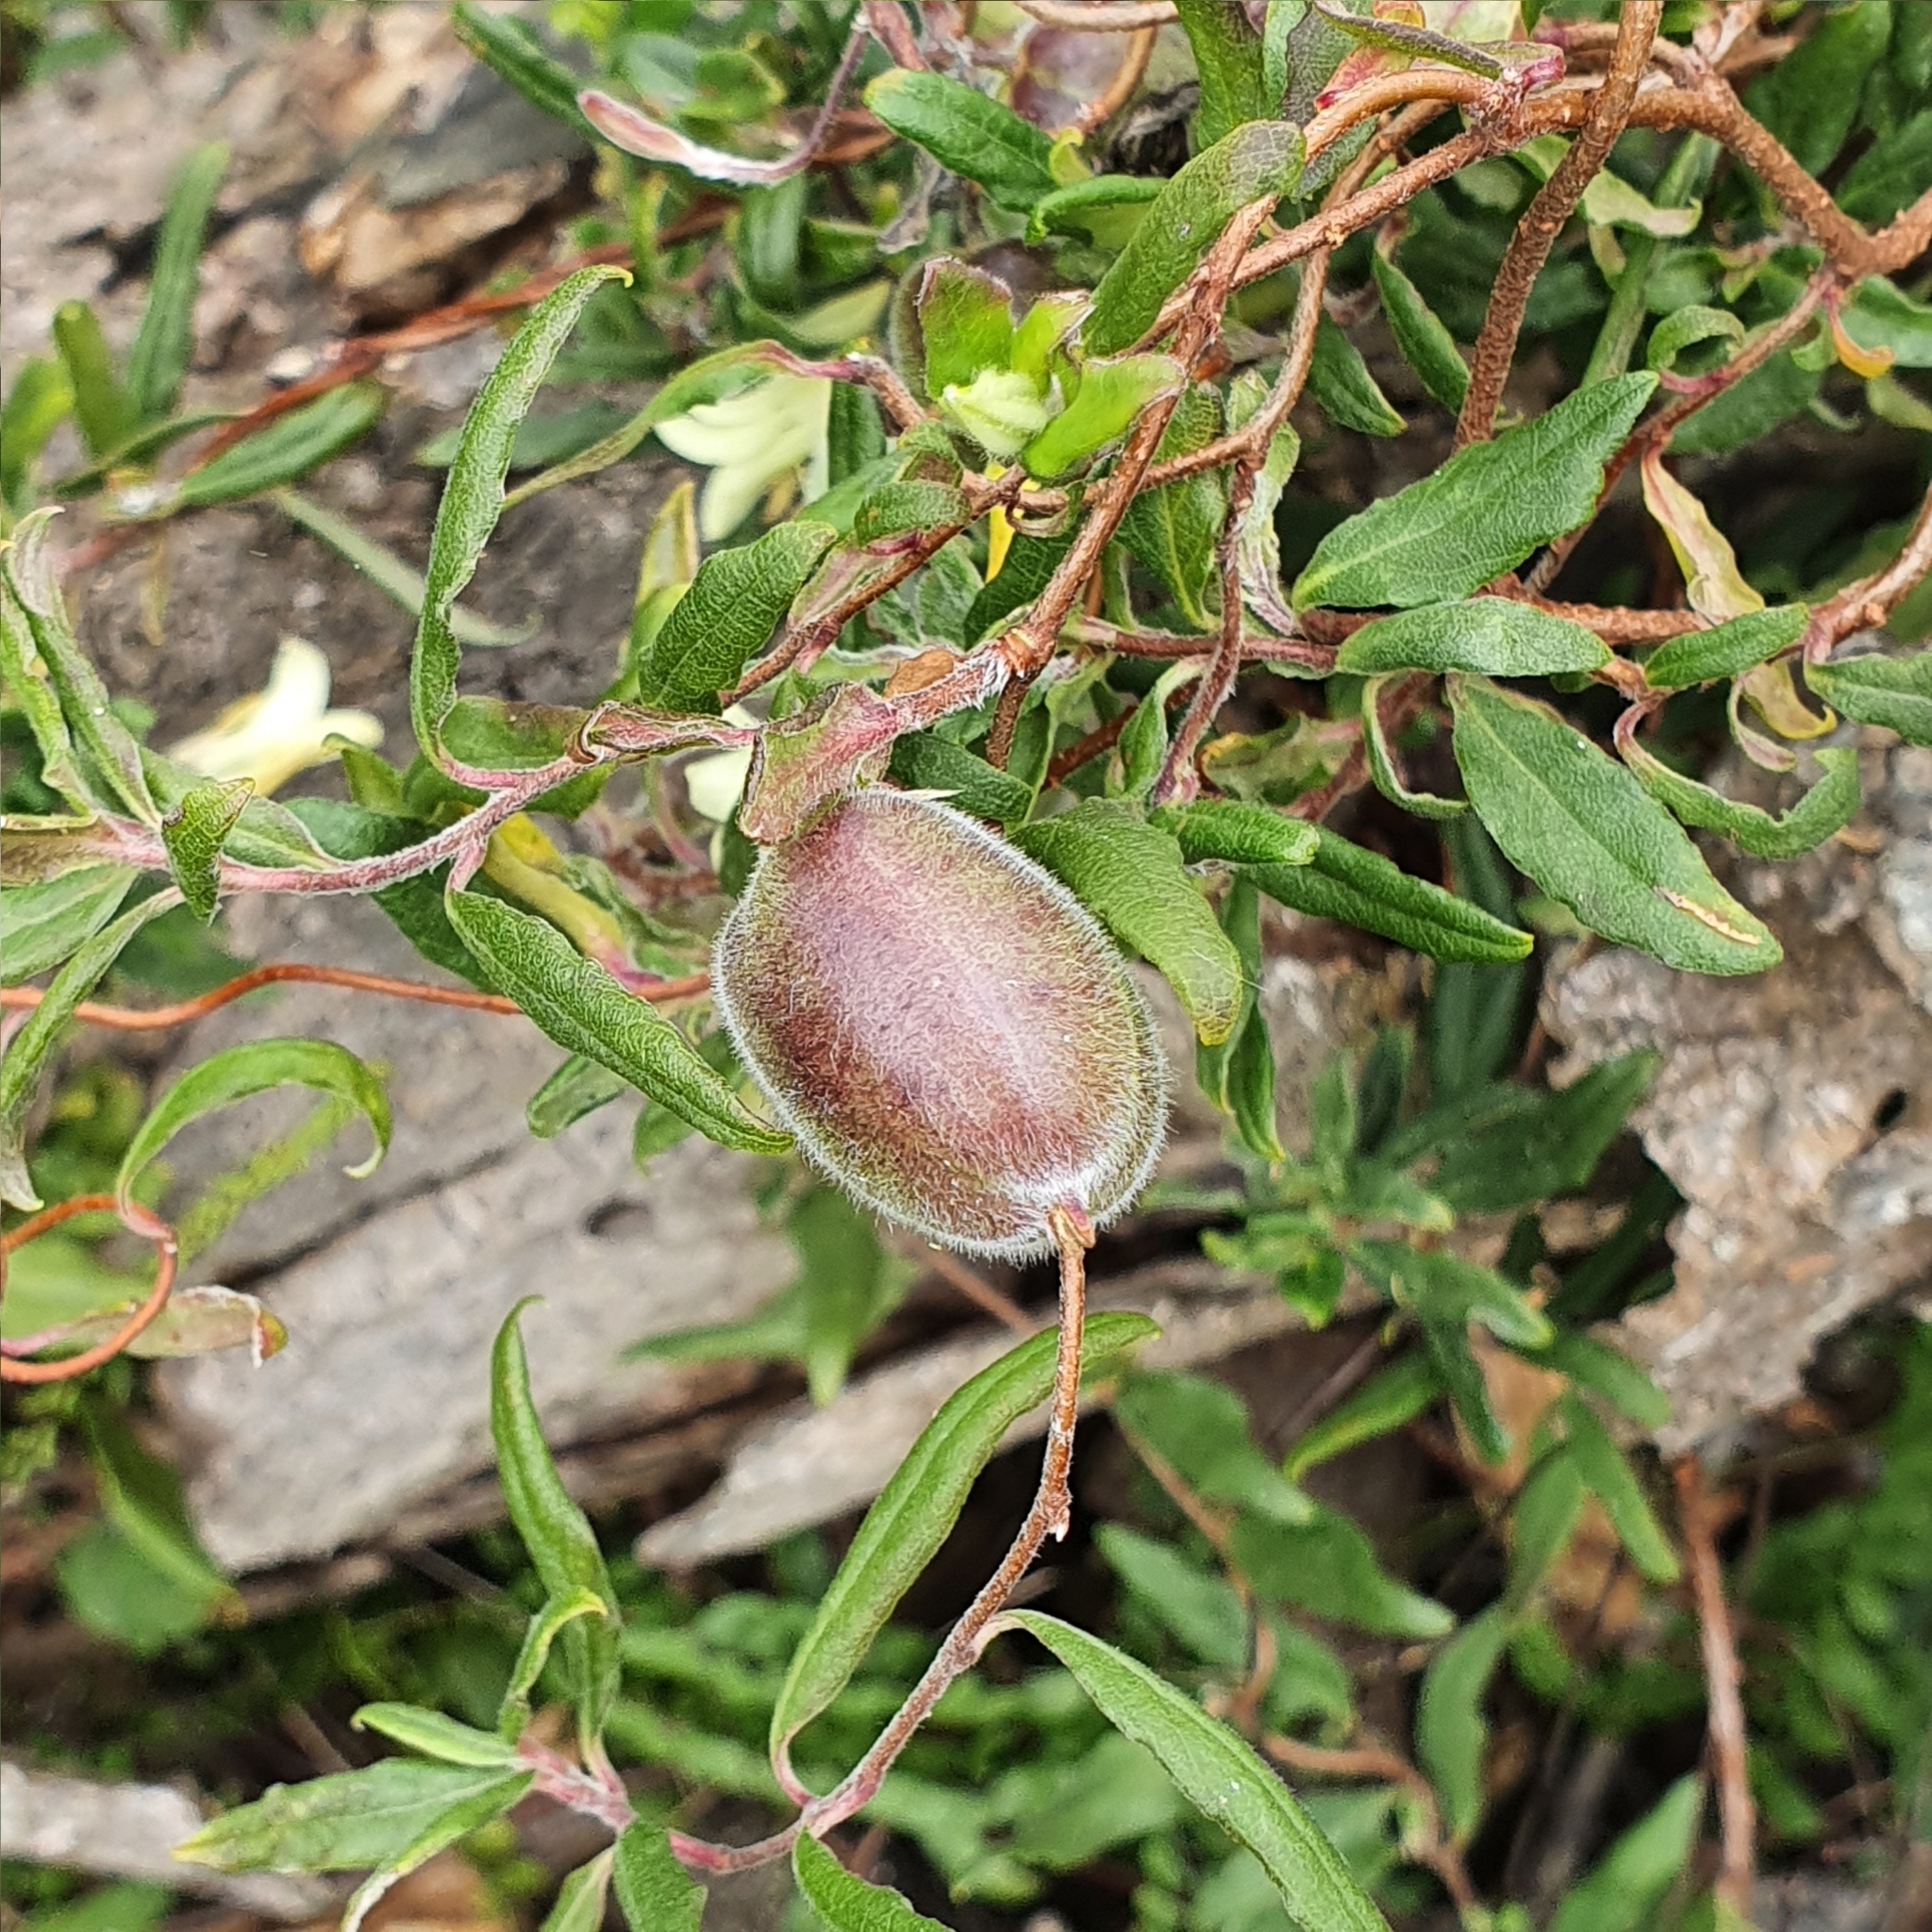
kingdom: Plantae
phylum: Tracheophyta
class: Magnoliopsida
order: Apiales
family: Pittosporaceae
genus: Billardiera
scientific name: Billardiera scandens
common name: Apple-berry
